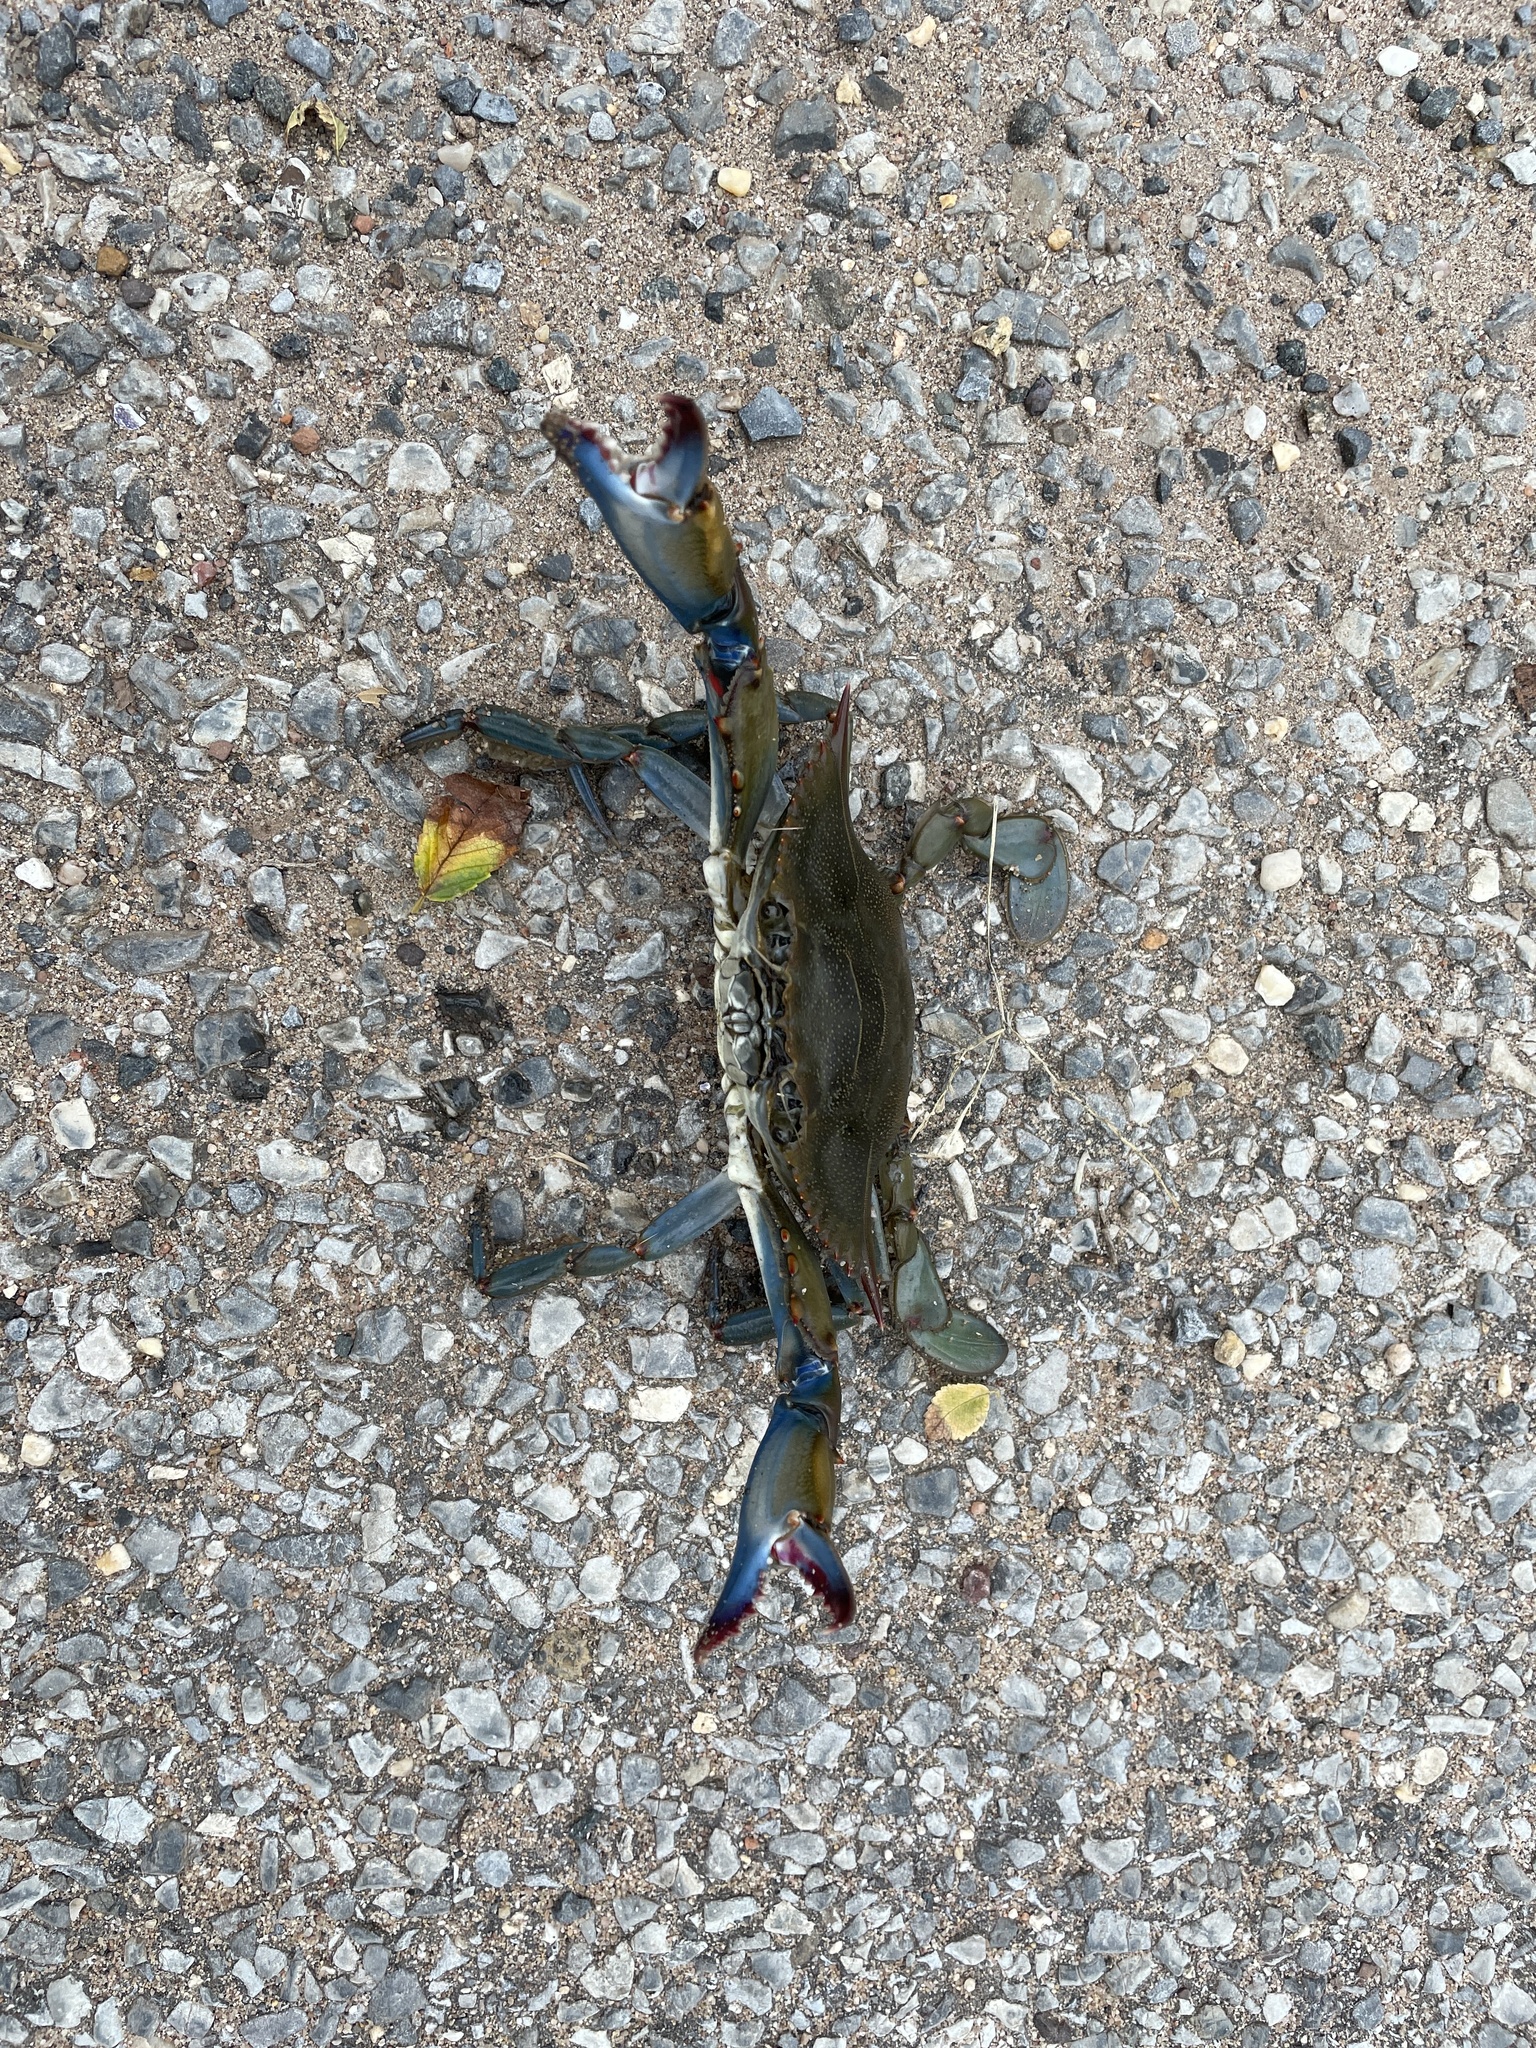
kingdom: Animalia
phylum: Arthropoda
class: Malacostraca
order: Decapoda
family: Portunidae
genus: Callinectes
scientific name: Callinectes sapidus
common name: Blue crab
